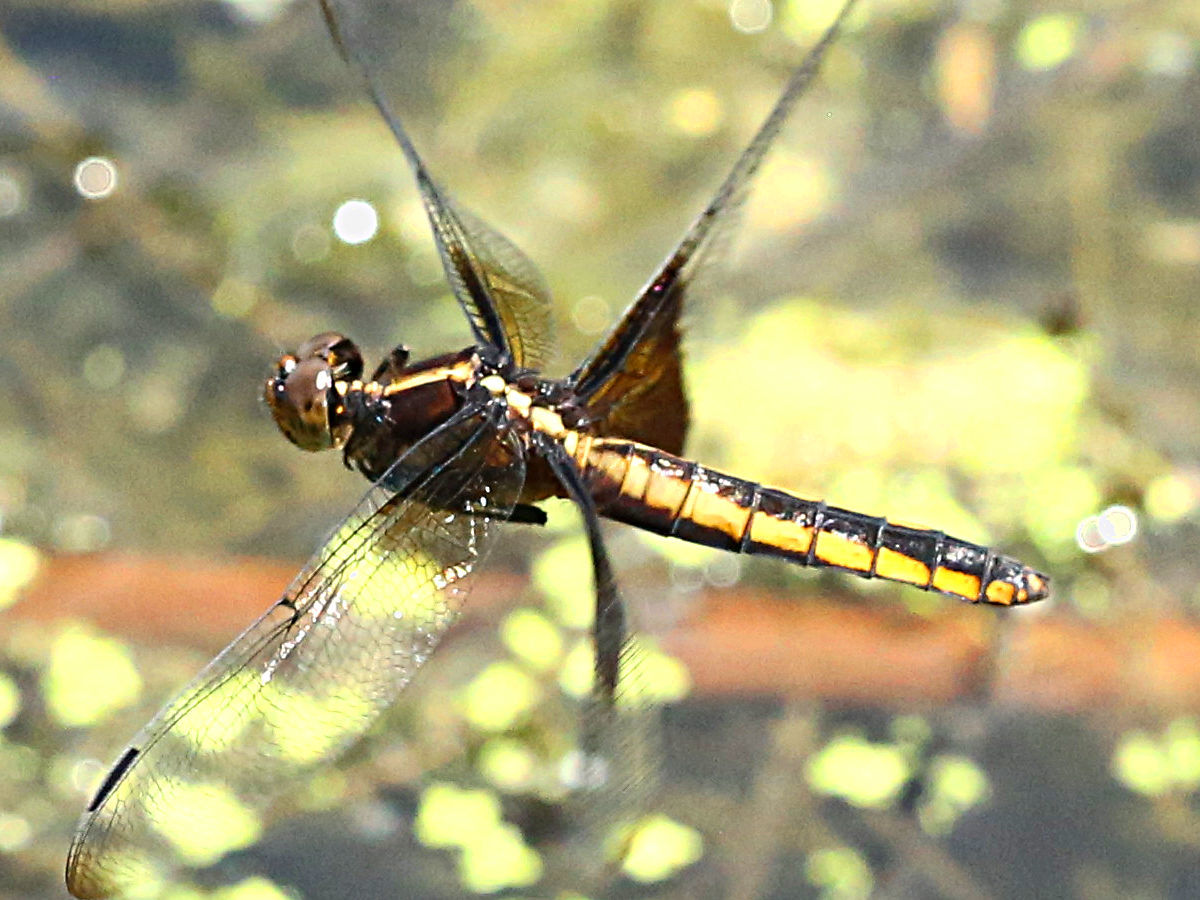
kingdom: Animalia
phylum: Arthropoda
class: Insecta
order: Odonata
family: Libellulidae
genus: Libellula
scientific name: Libellula luctuosa
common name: Widow skimmer
